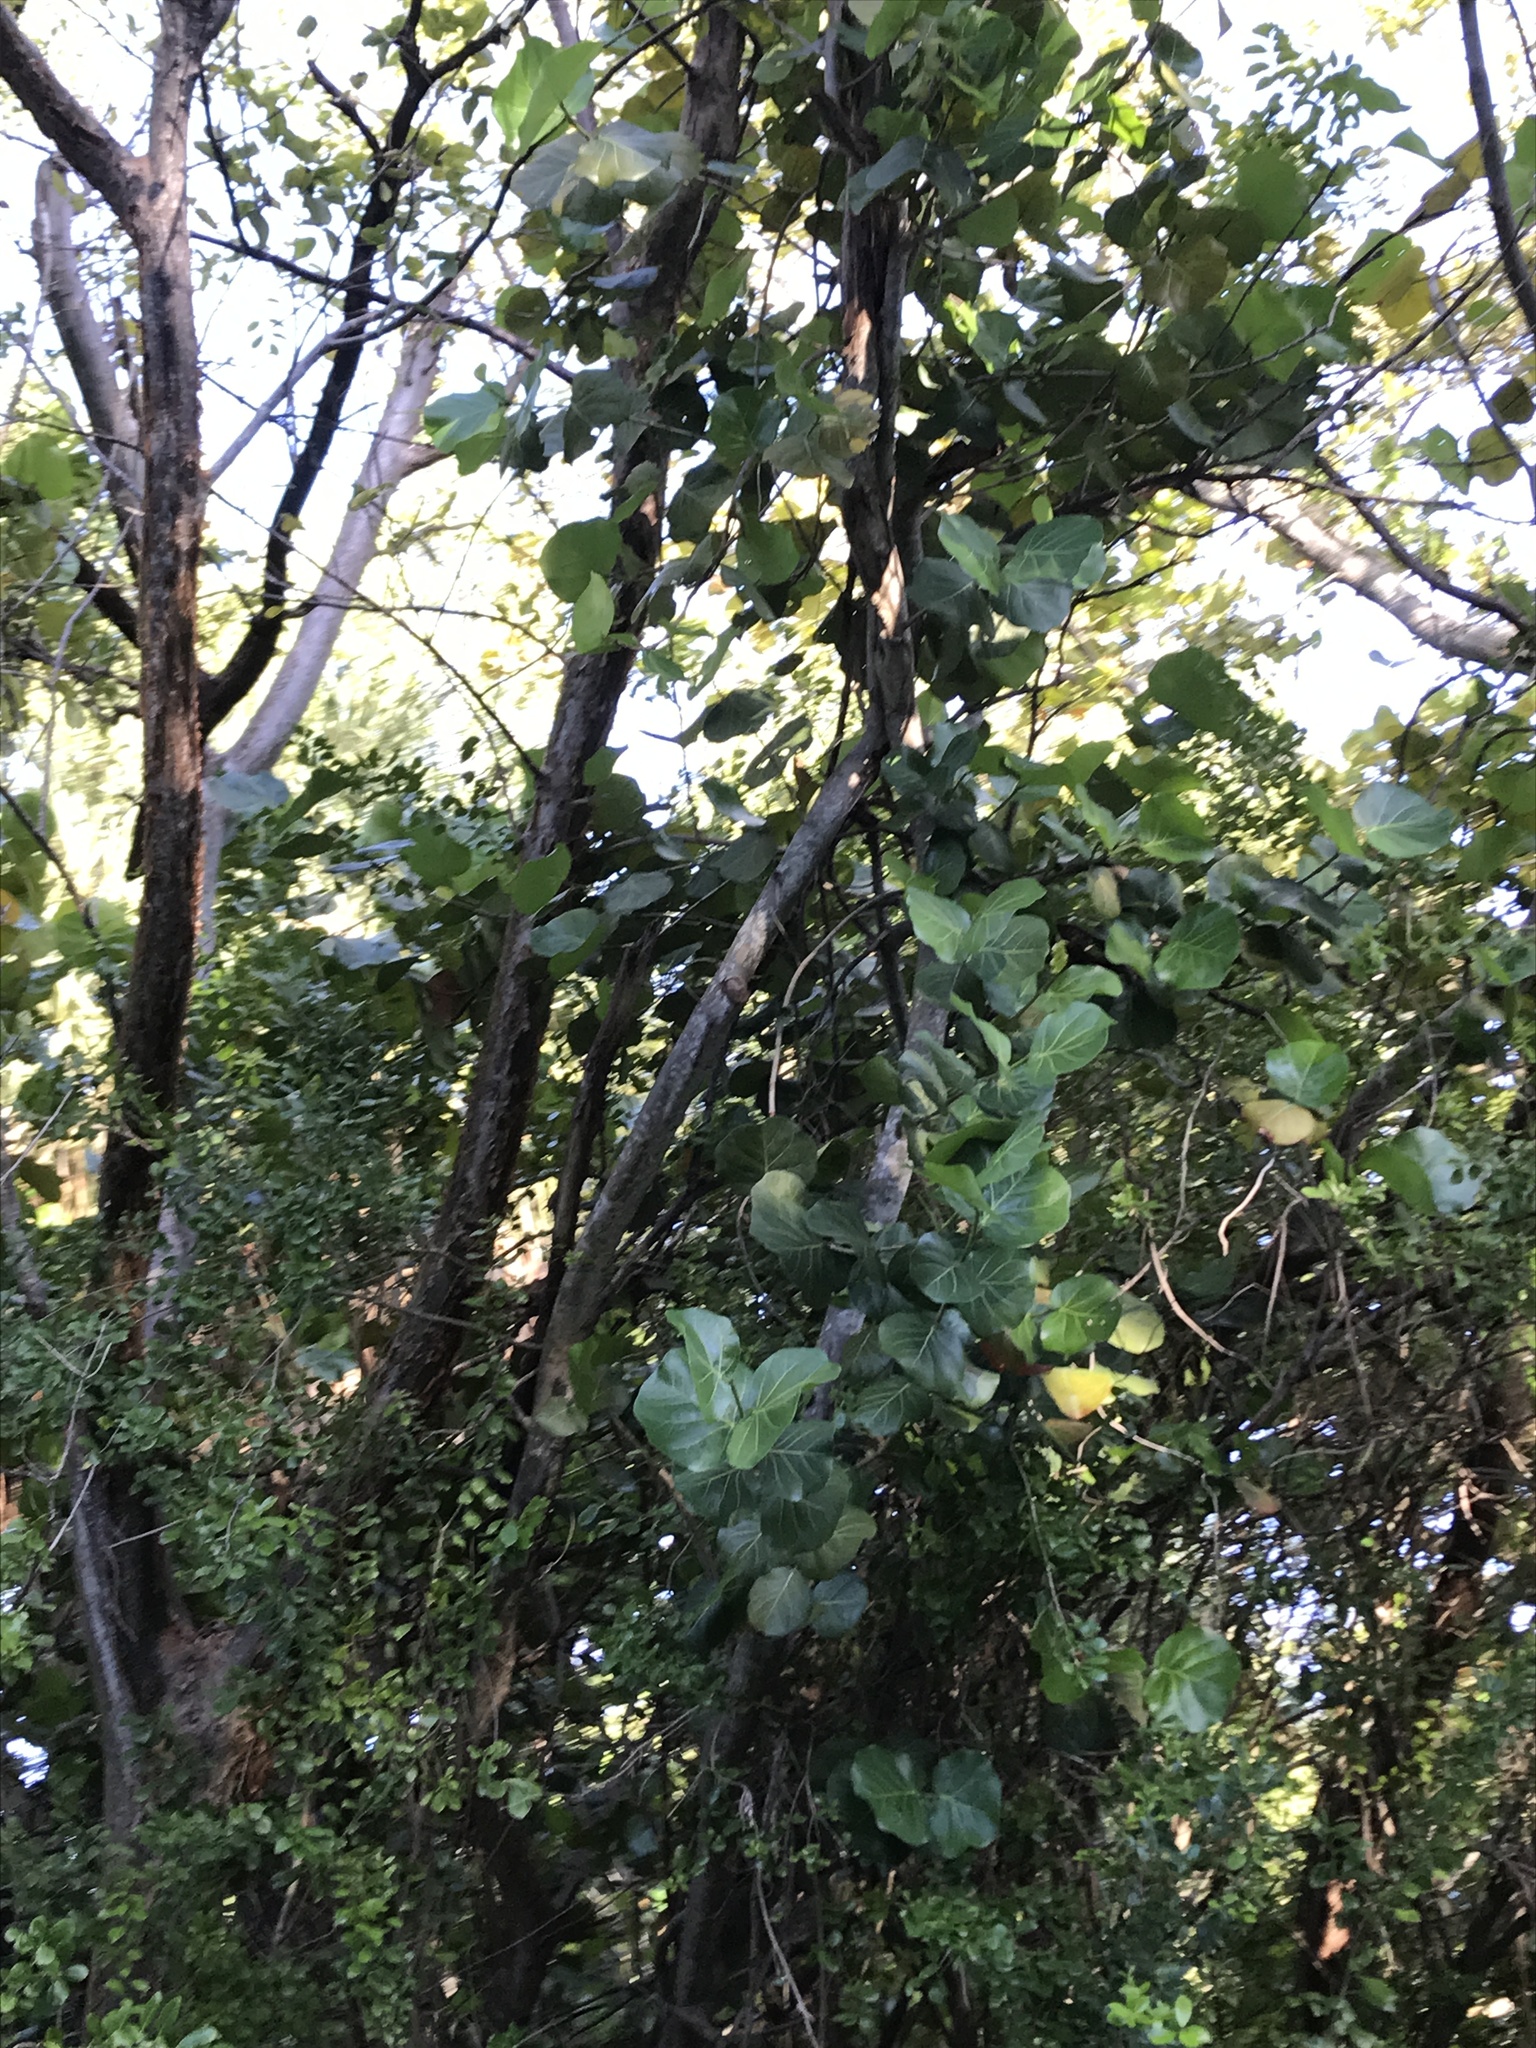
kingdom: Plantae
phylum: Tracheophyta
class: Magnoliopsida
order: Caryophyllales
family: Polygonaceae
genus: Coccoloba
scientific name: Coccoloba uvifera
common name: Seagrape
